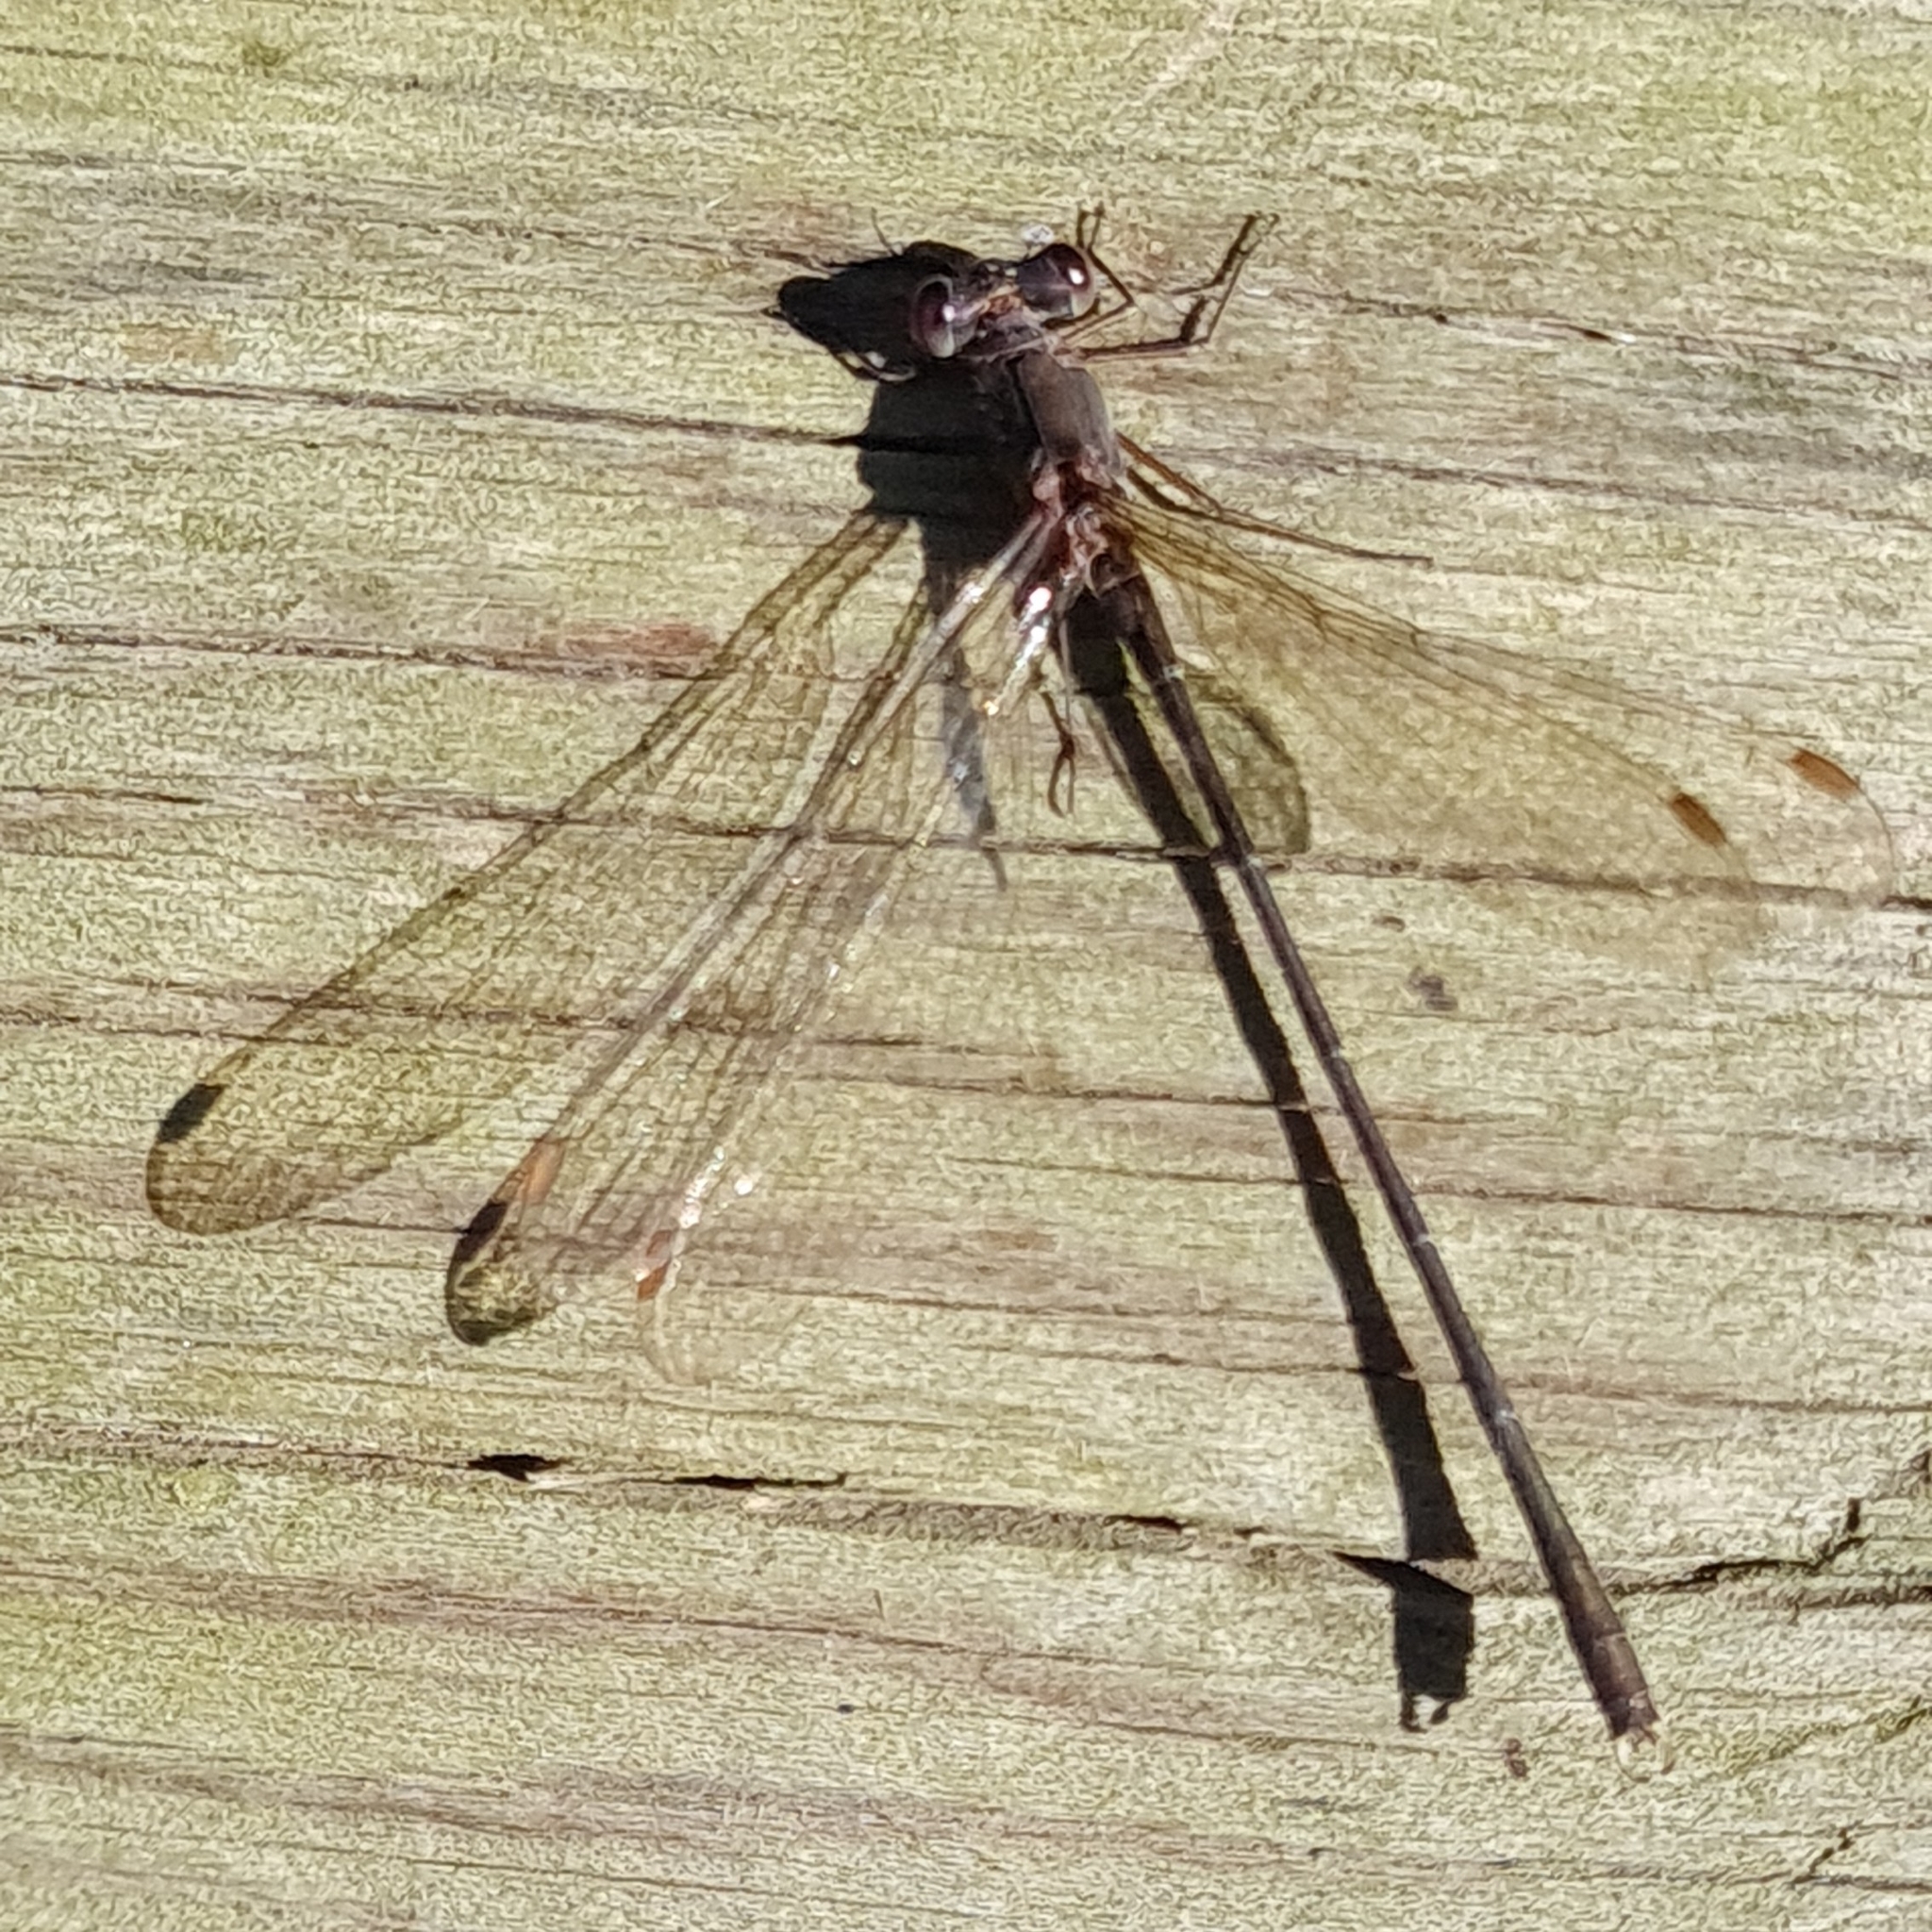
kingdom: Animalia
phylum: Arthropoda
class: Insecta
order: Odonata
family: Lestidae
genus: Chalcolestes
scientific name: Chalcolestes viridis
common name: Green emerald damselfly
